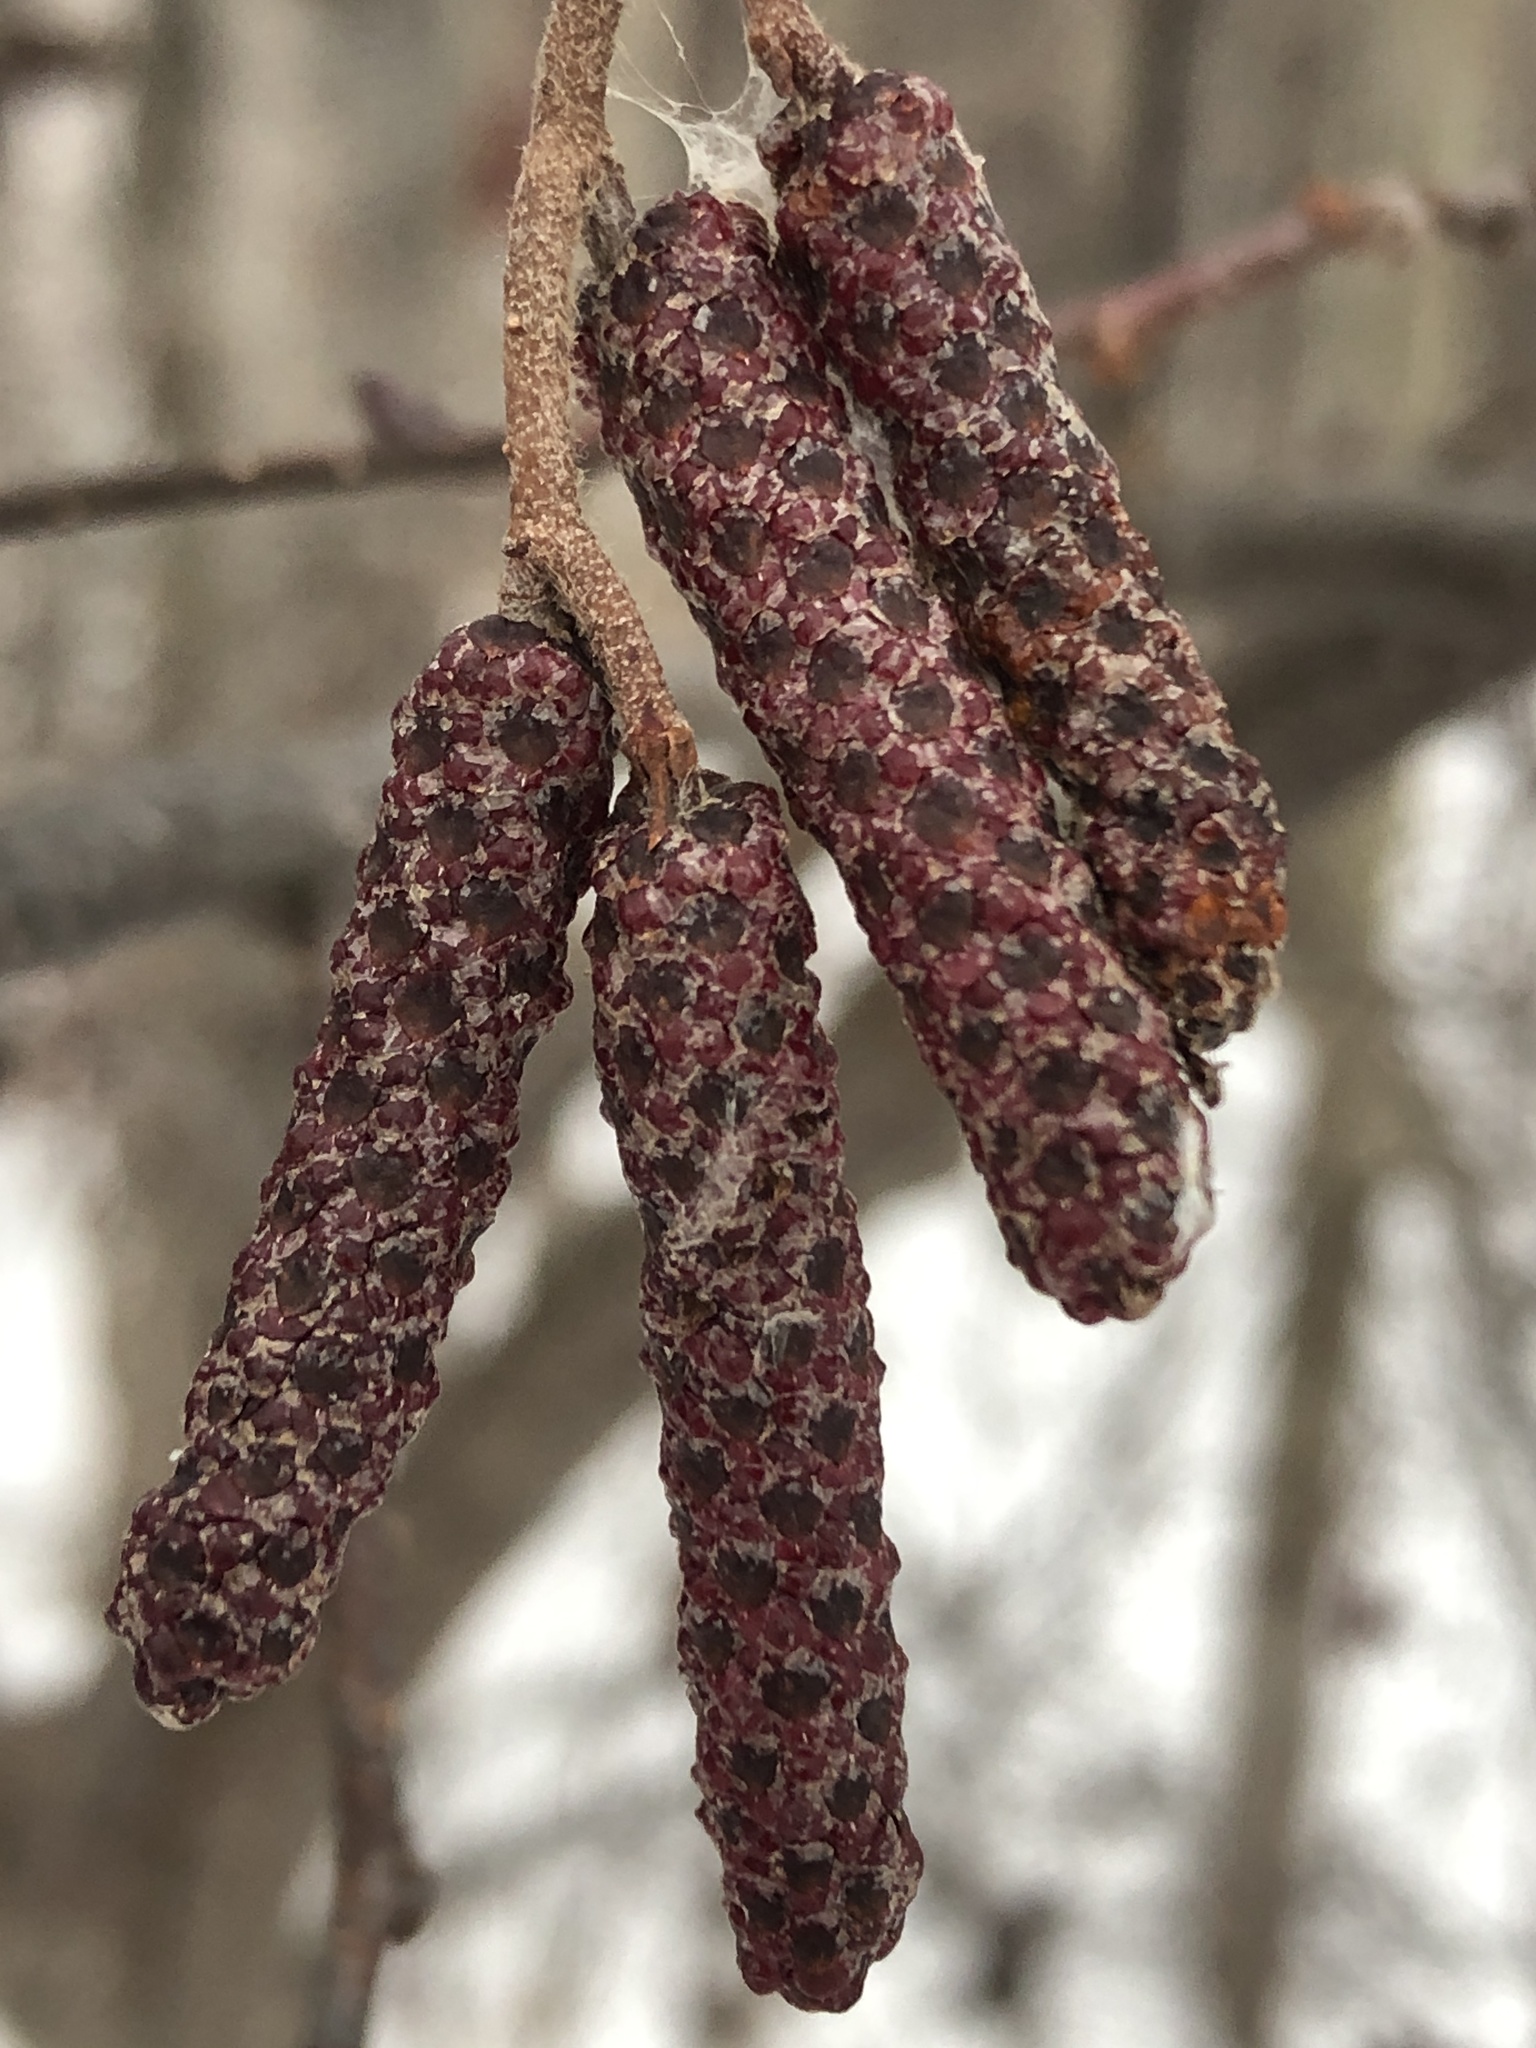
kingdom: Plantae
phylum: Tracheophyta
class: Magnoliopsida
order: Fagales
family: Betulaceae
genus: Alnus
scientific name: Alnus incana
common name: Grey alder
